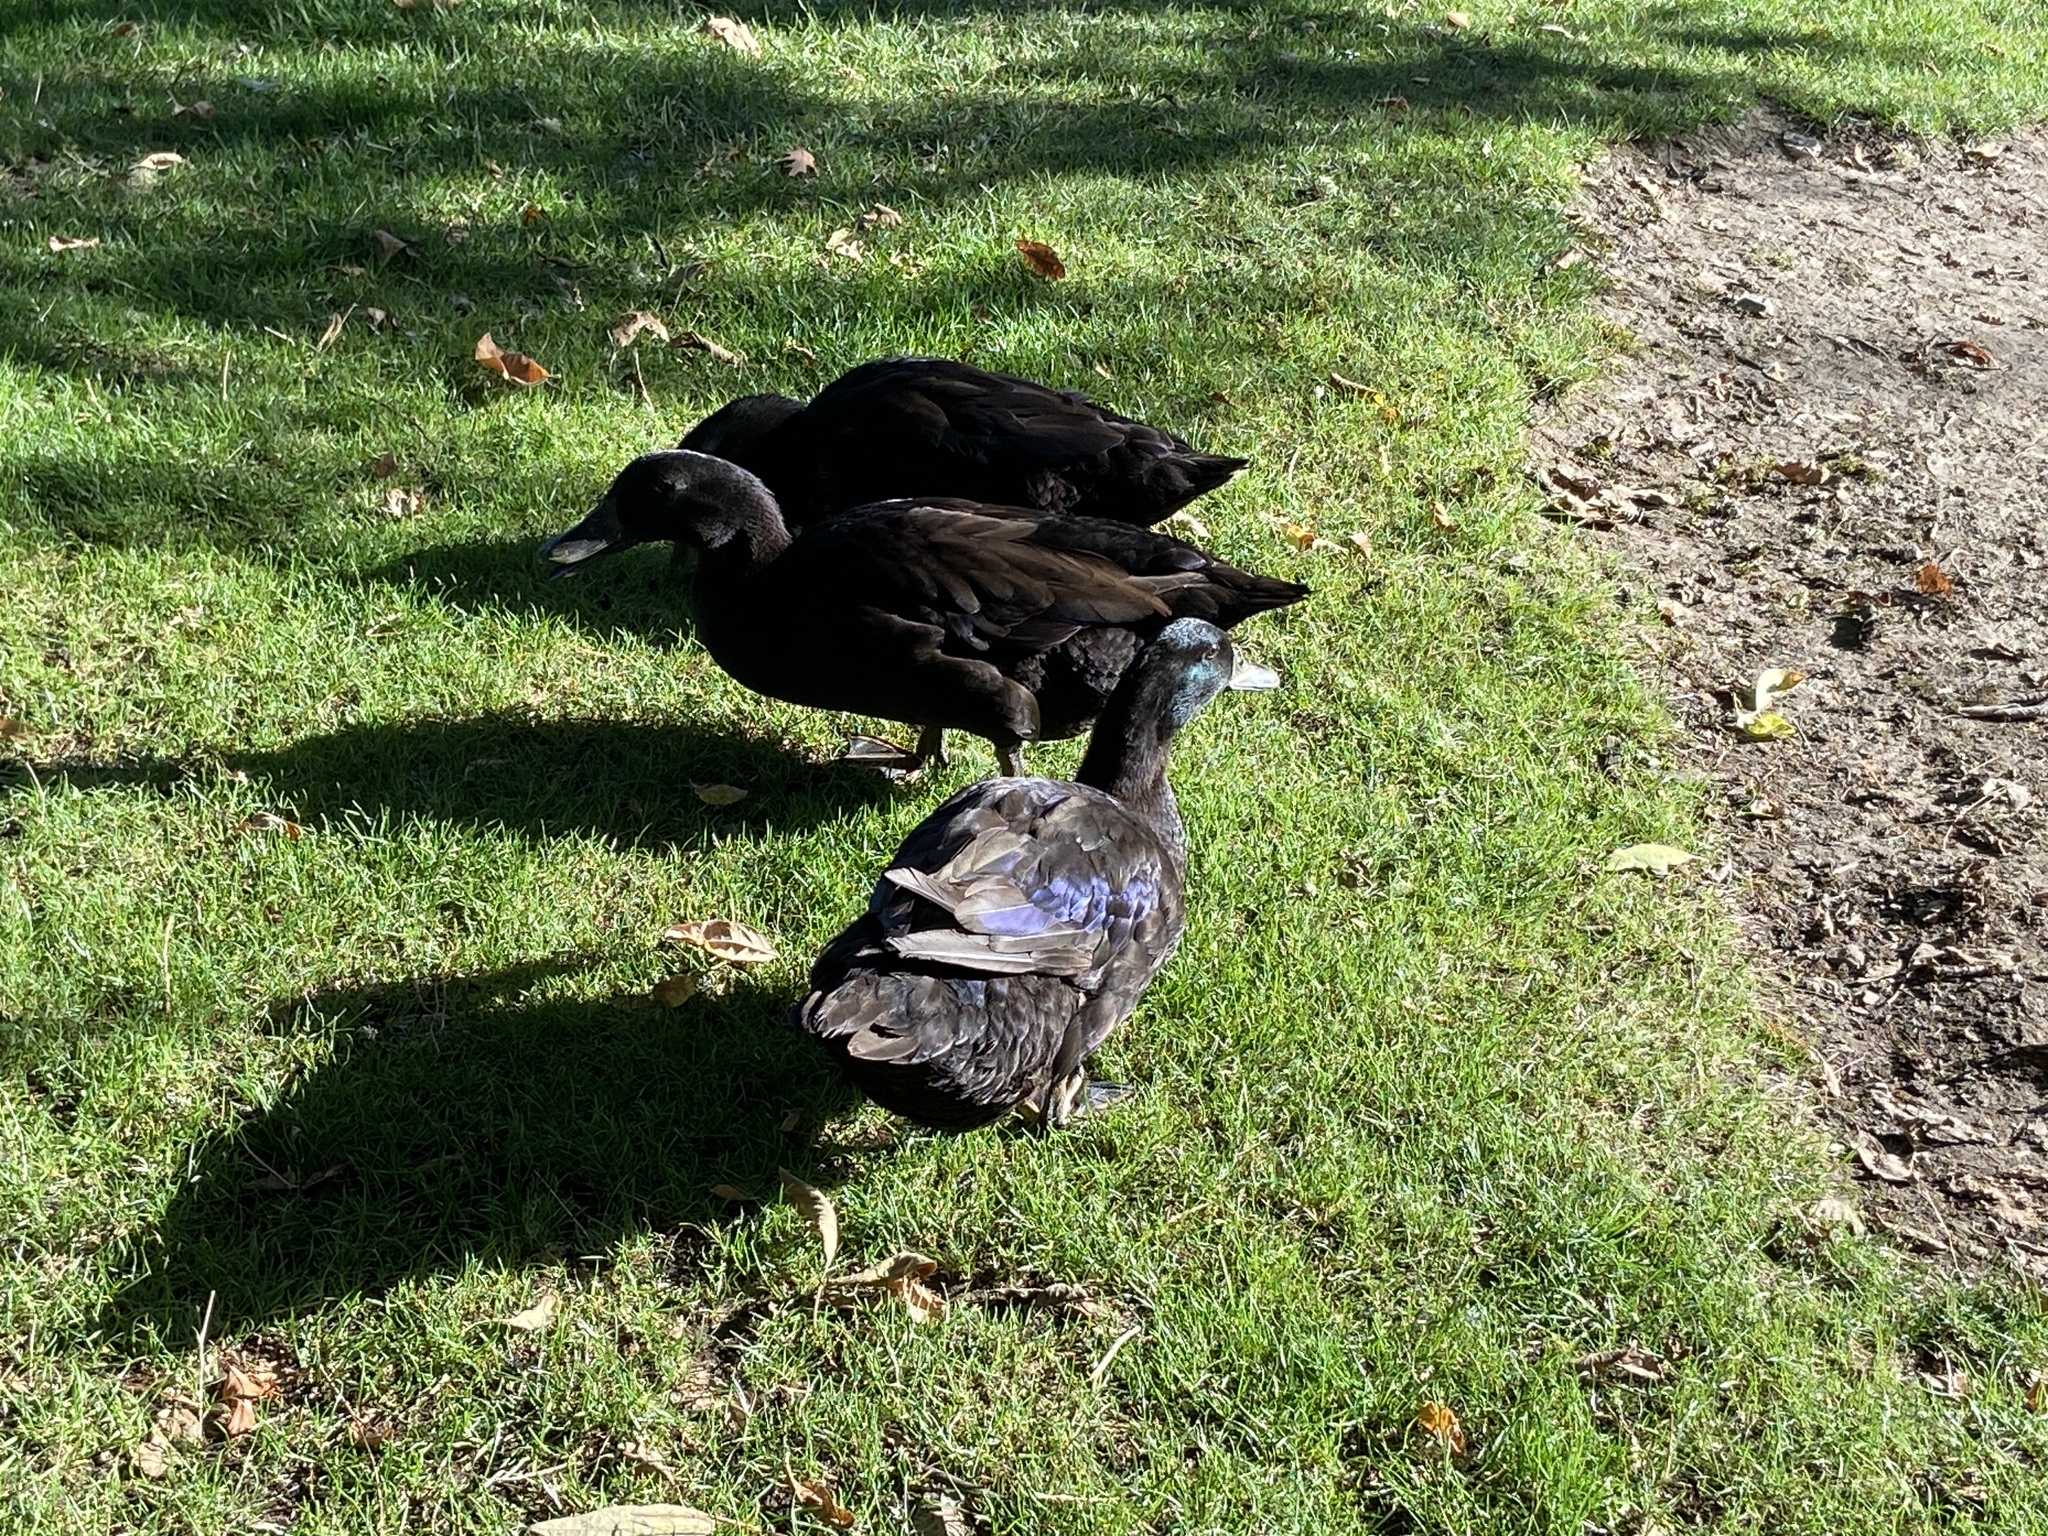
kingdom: Animalia
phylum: Chordata
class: Aves
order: Anseriformes
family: Anatidae
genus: Anas
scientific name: Anas platyrhynchos
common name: Mallard
